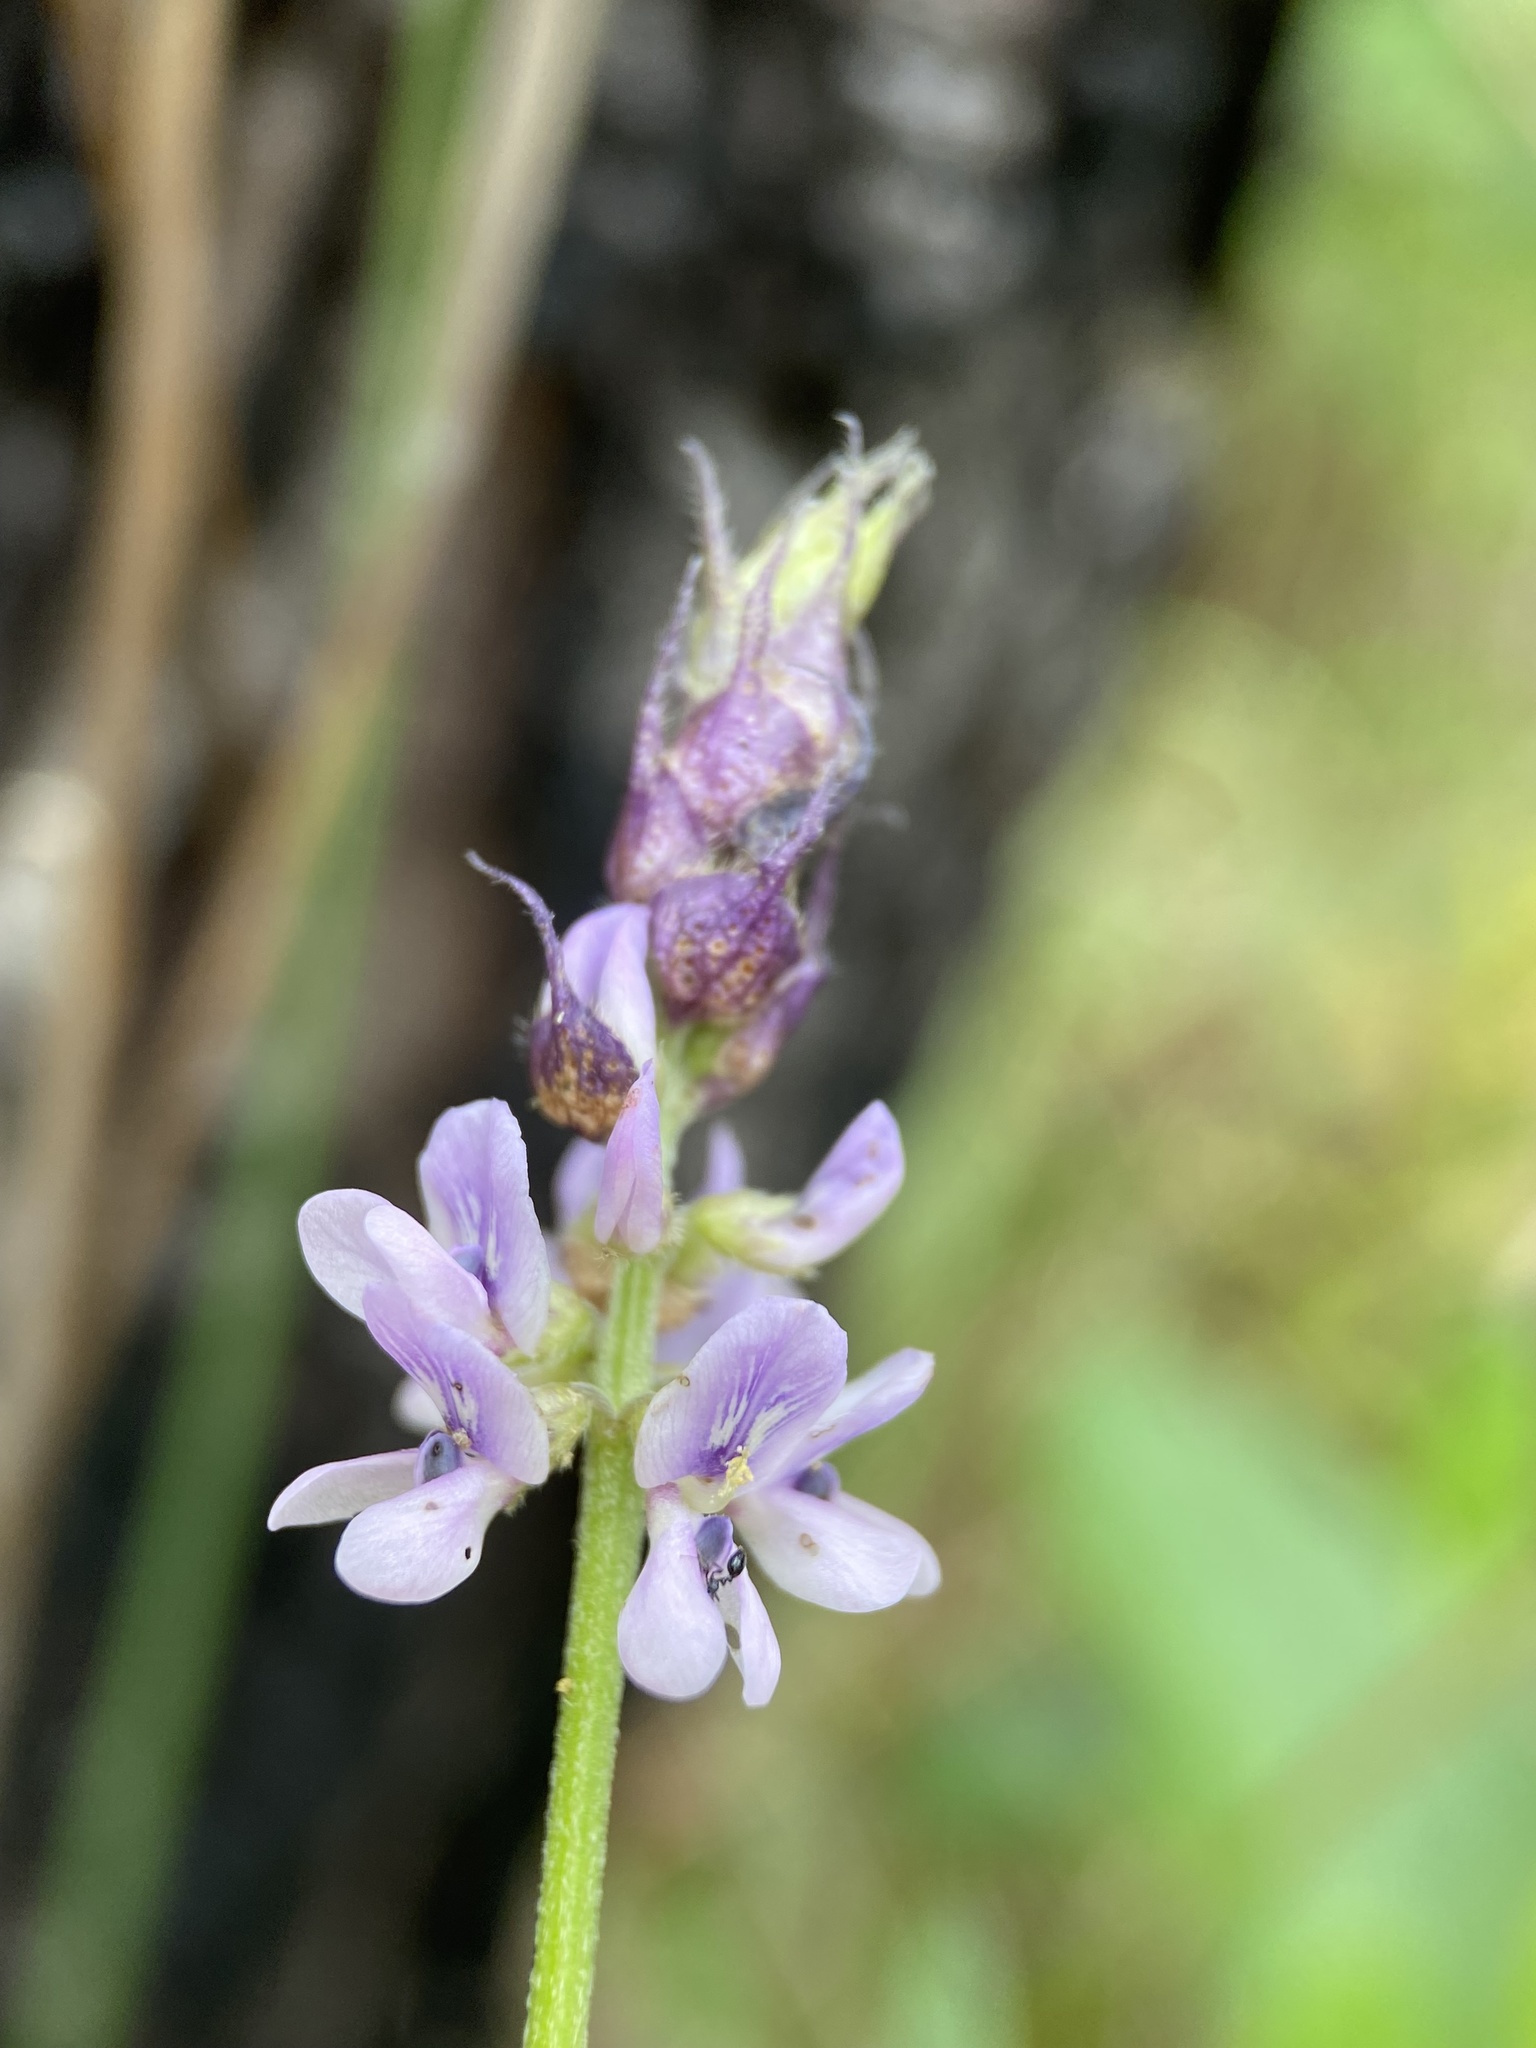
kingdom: Plantae
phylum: Tracheophyta
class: Magnoliopsida
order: Fabales
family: Fabaceae
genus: Orbexilum
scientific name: Orbexilum psoralioides
